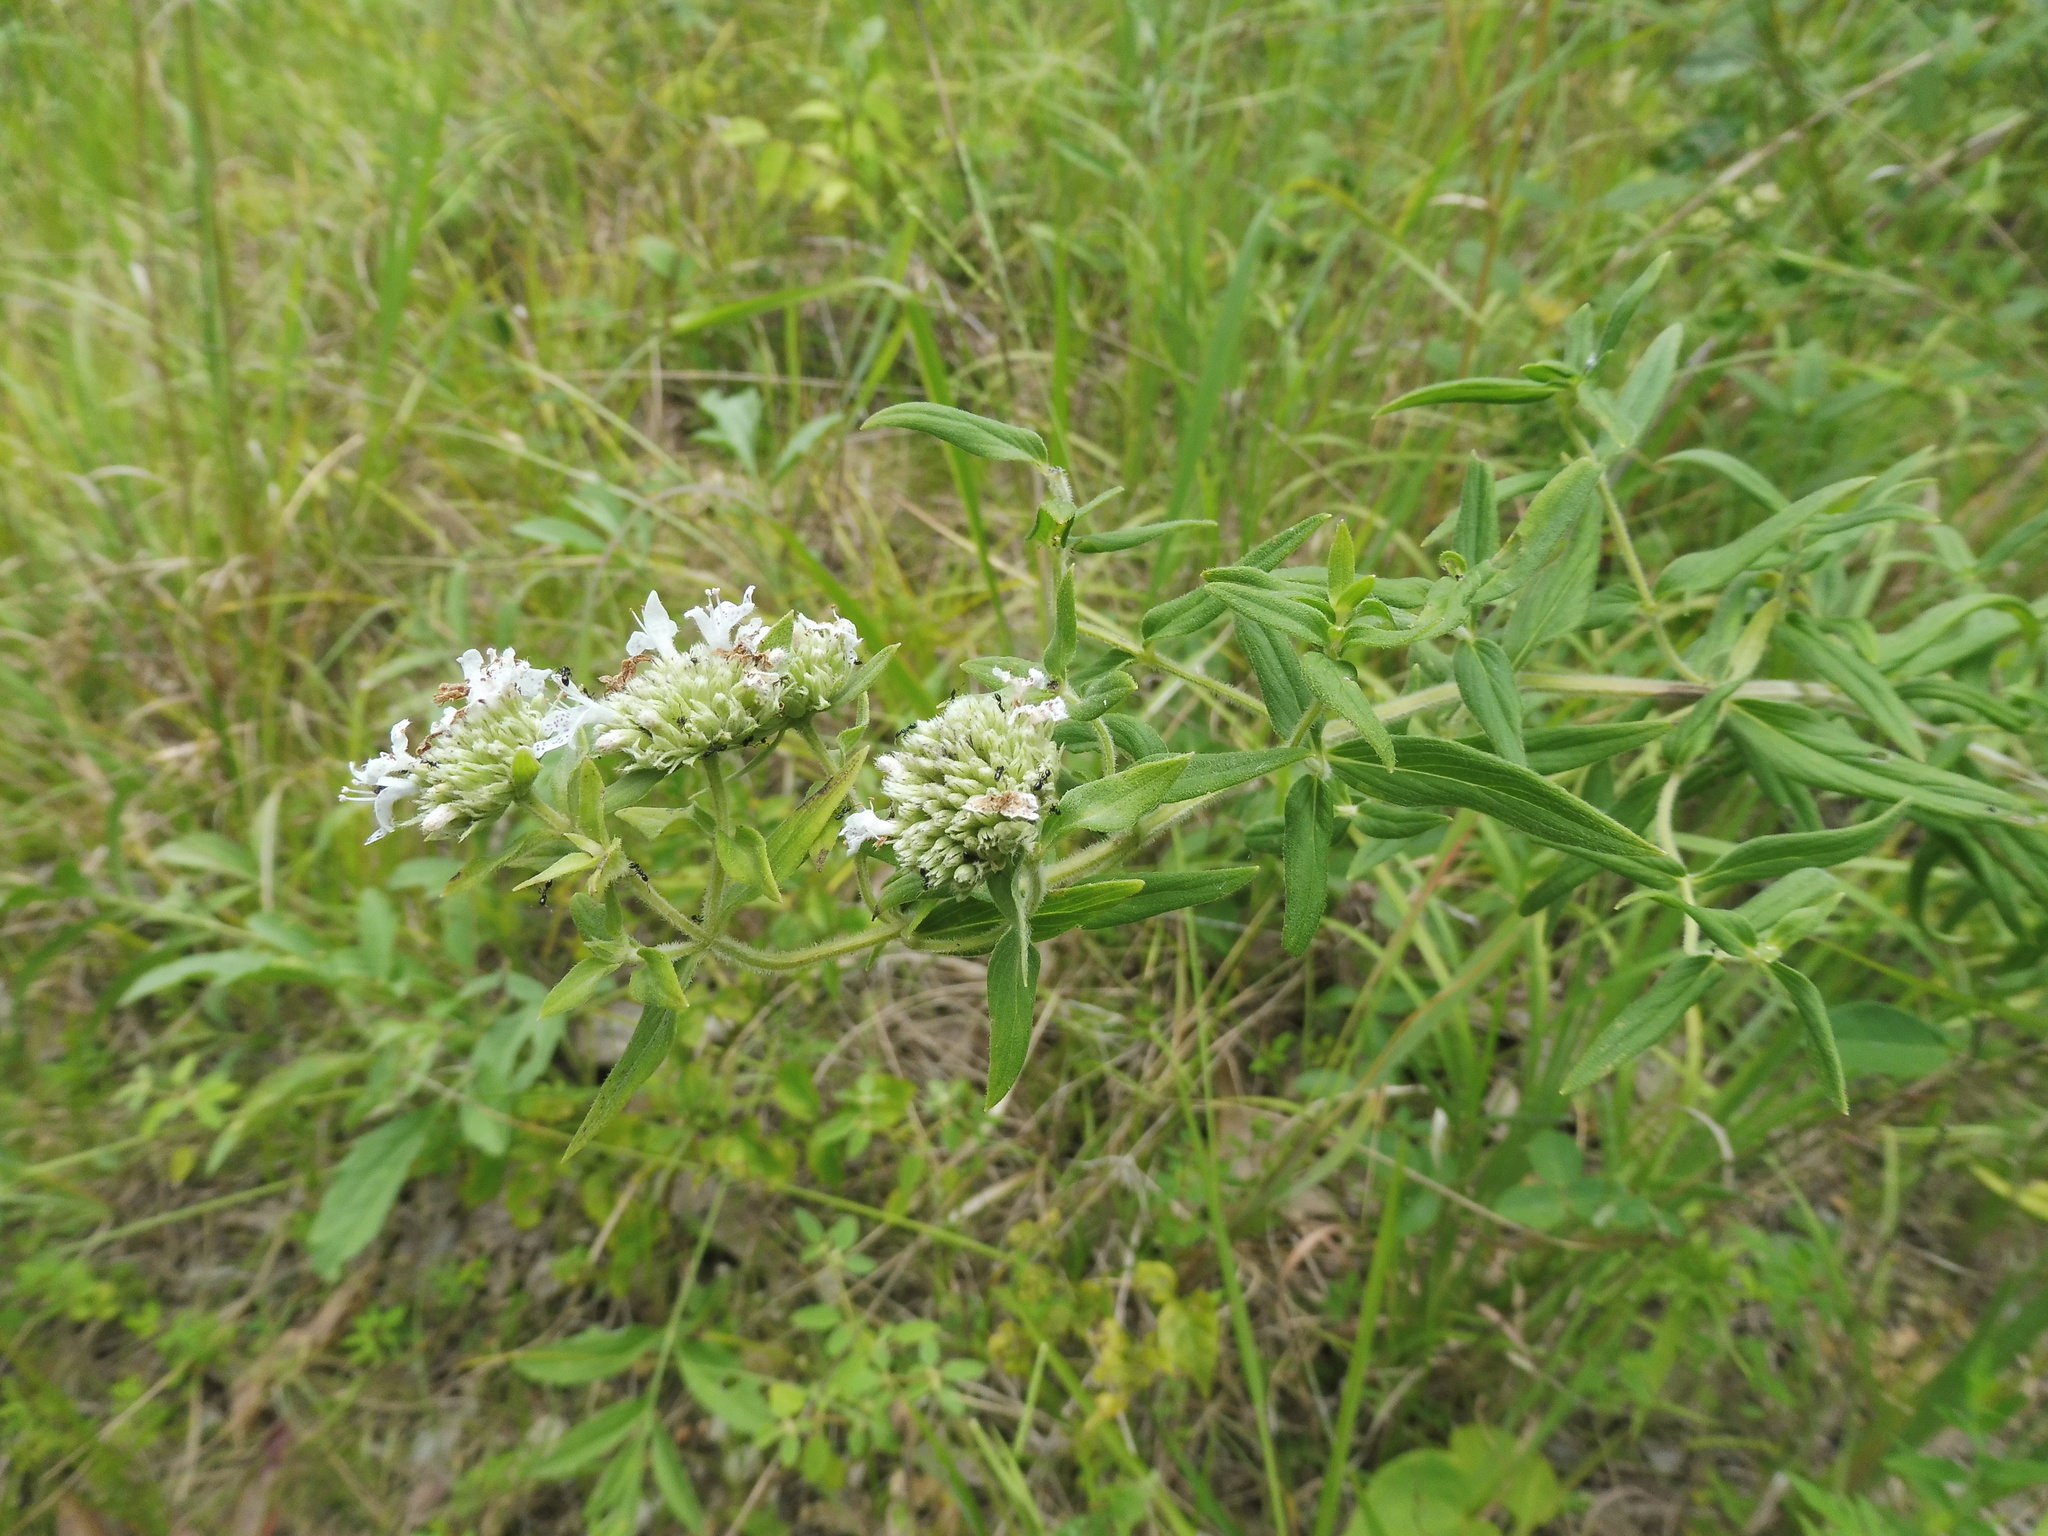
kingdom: Plantae
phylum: Tracheophyta
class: Magnoliopsida
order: Lamiales
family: Lamiaceae
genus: Pycnanthemum
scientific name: Pycnanthemum torreyi
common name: Torrey's mountain-mint
